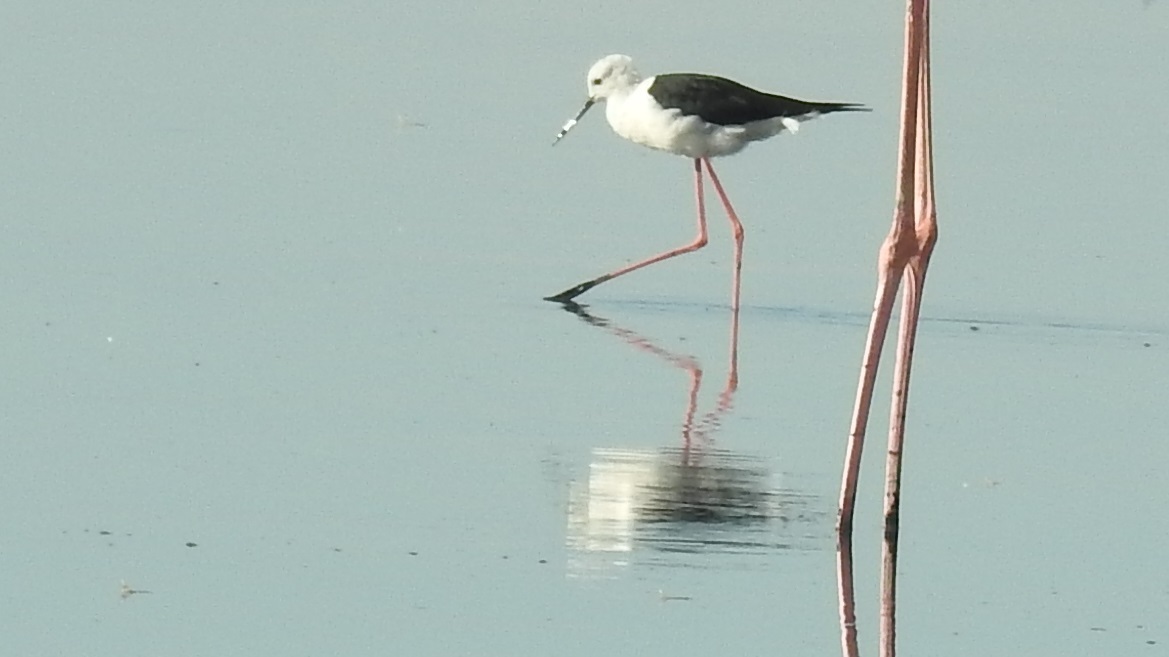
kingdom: Animalia
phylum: Chordata
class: Aves
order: Charadriiformes
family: Recurvirostridae
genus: Himantopus
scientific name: Himantopus himantopus
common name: Black-winged stilt
